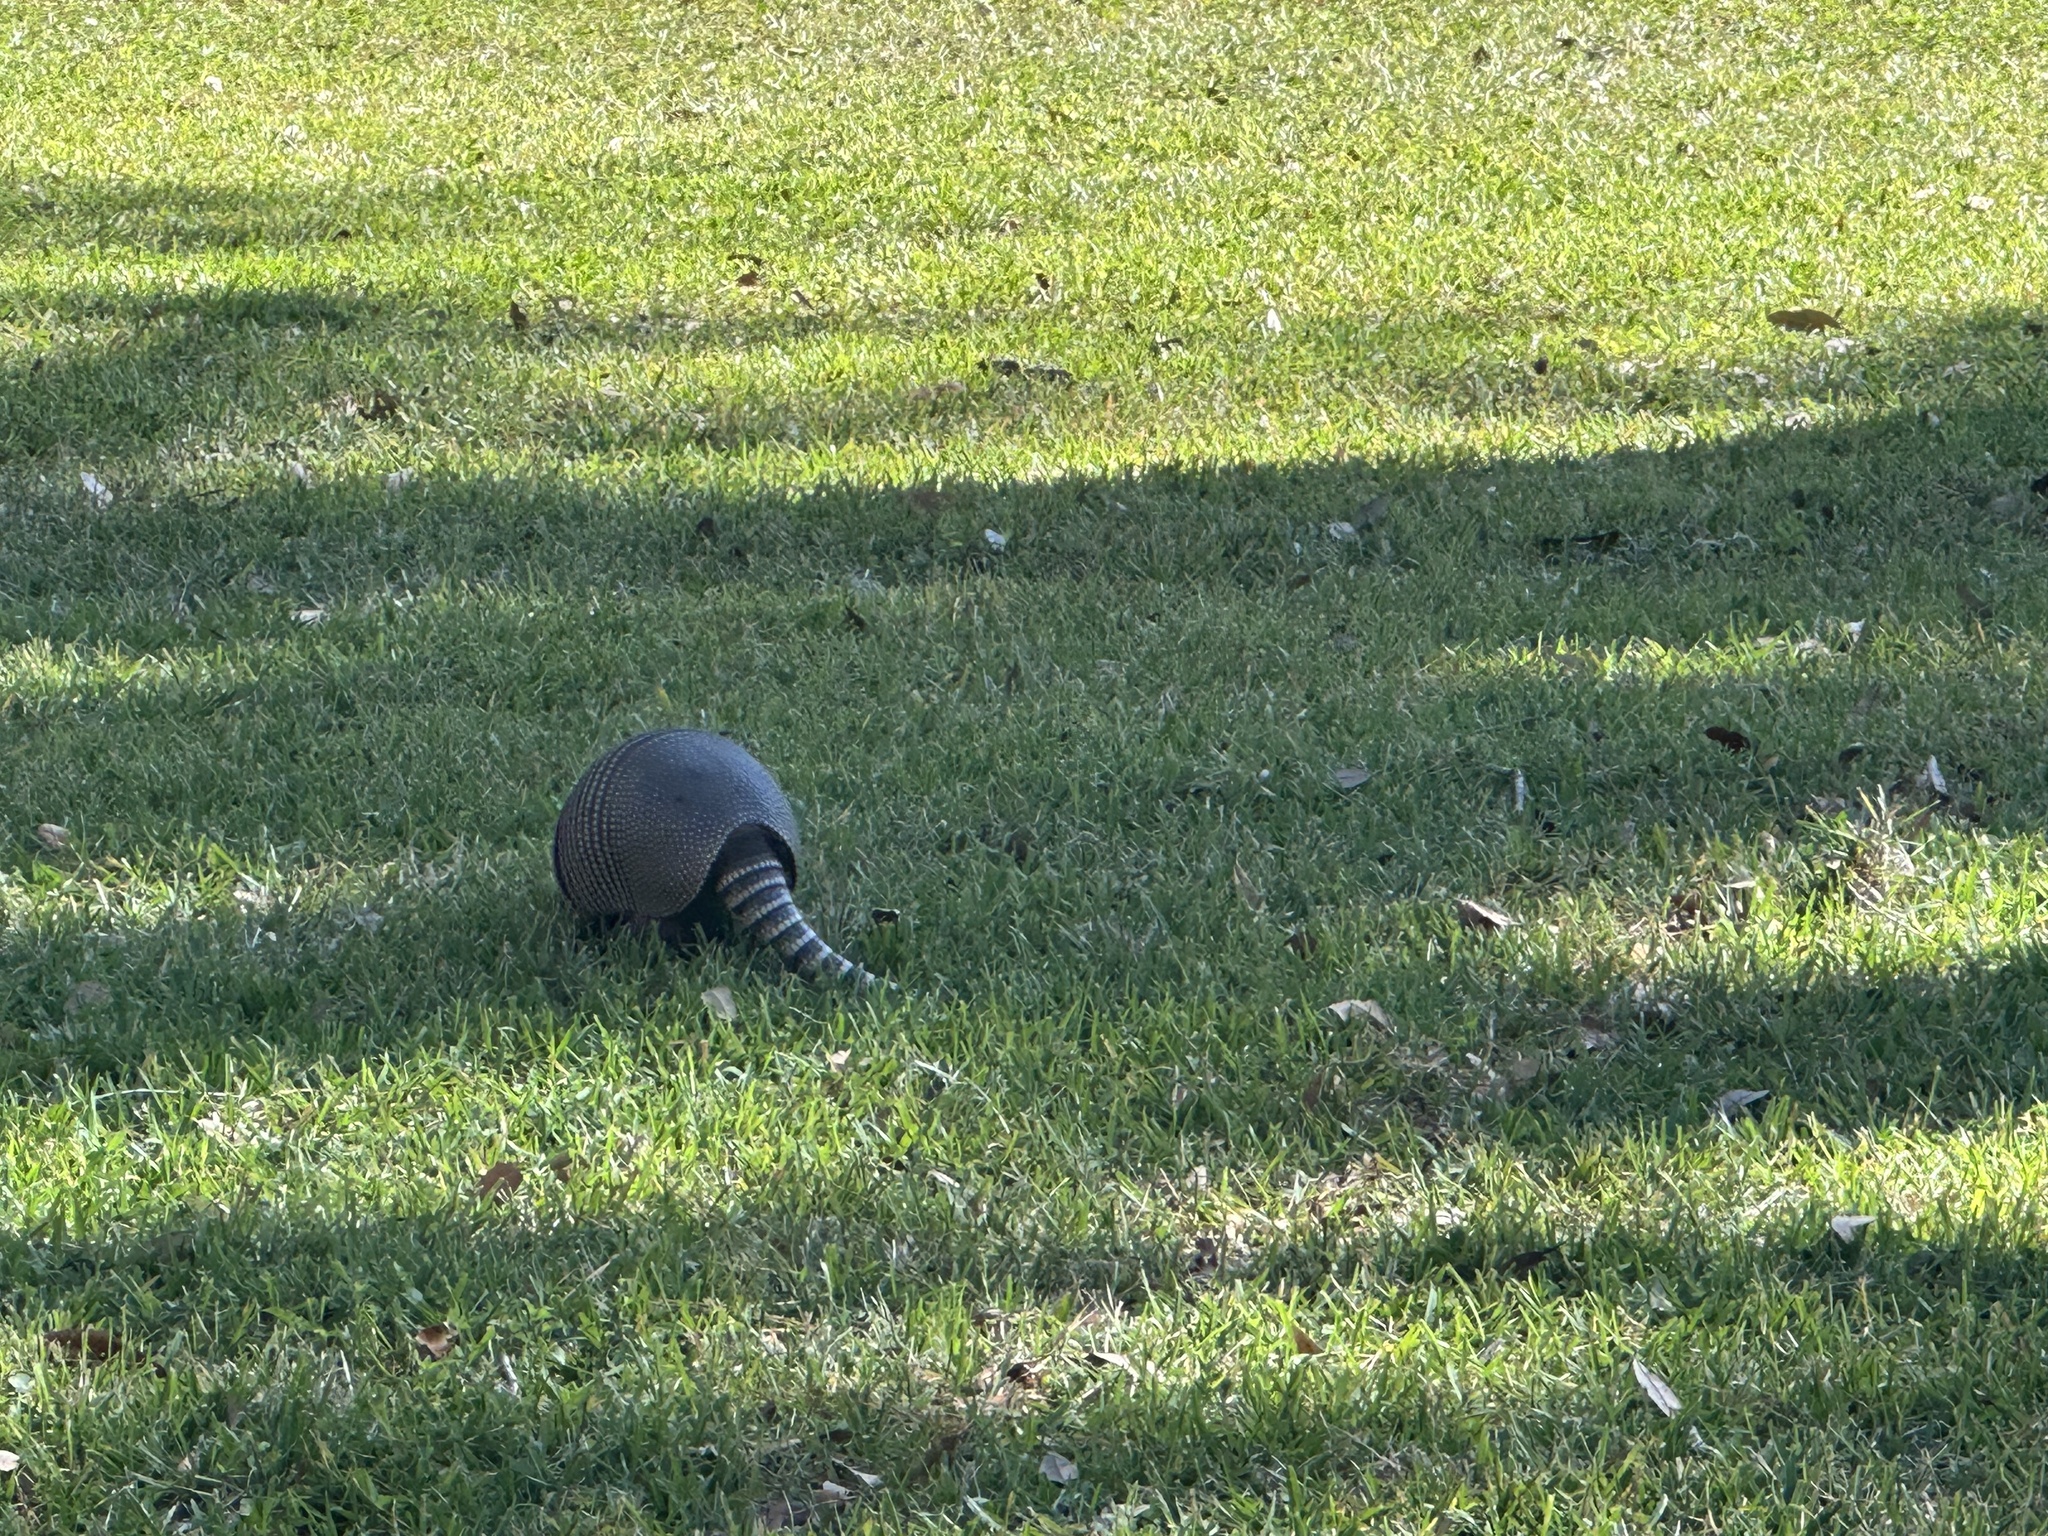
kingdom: Animalia
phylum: Chordata
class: Mammalia
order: Cingulata
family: Dasypodidae
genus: Dasypus
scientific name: Dasypus novemcinctus
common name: Nine-banded armadillo
